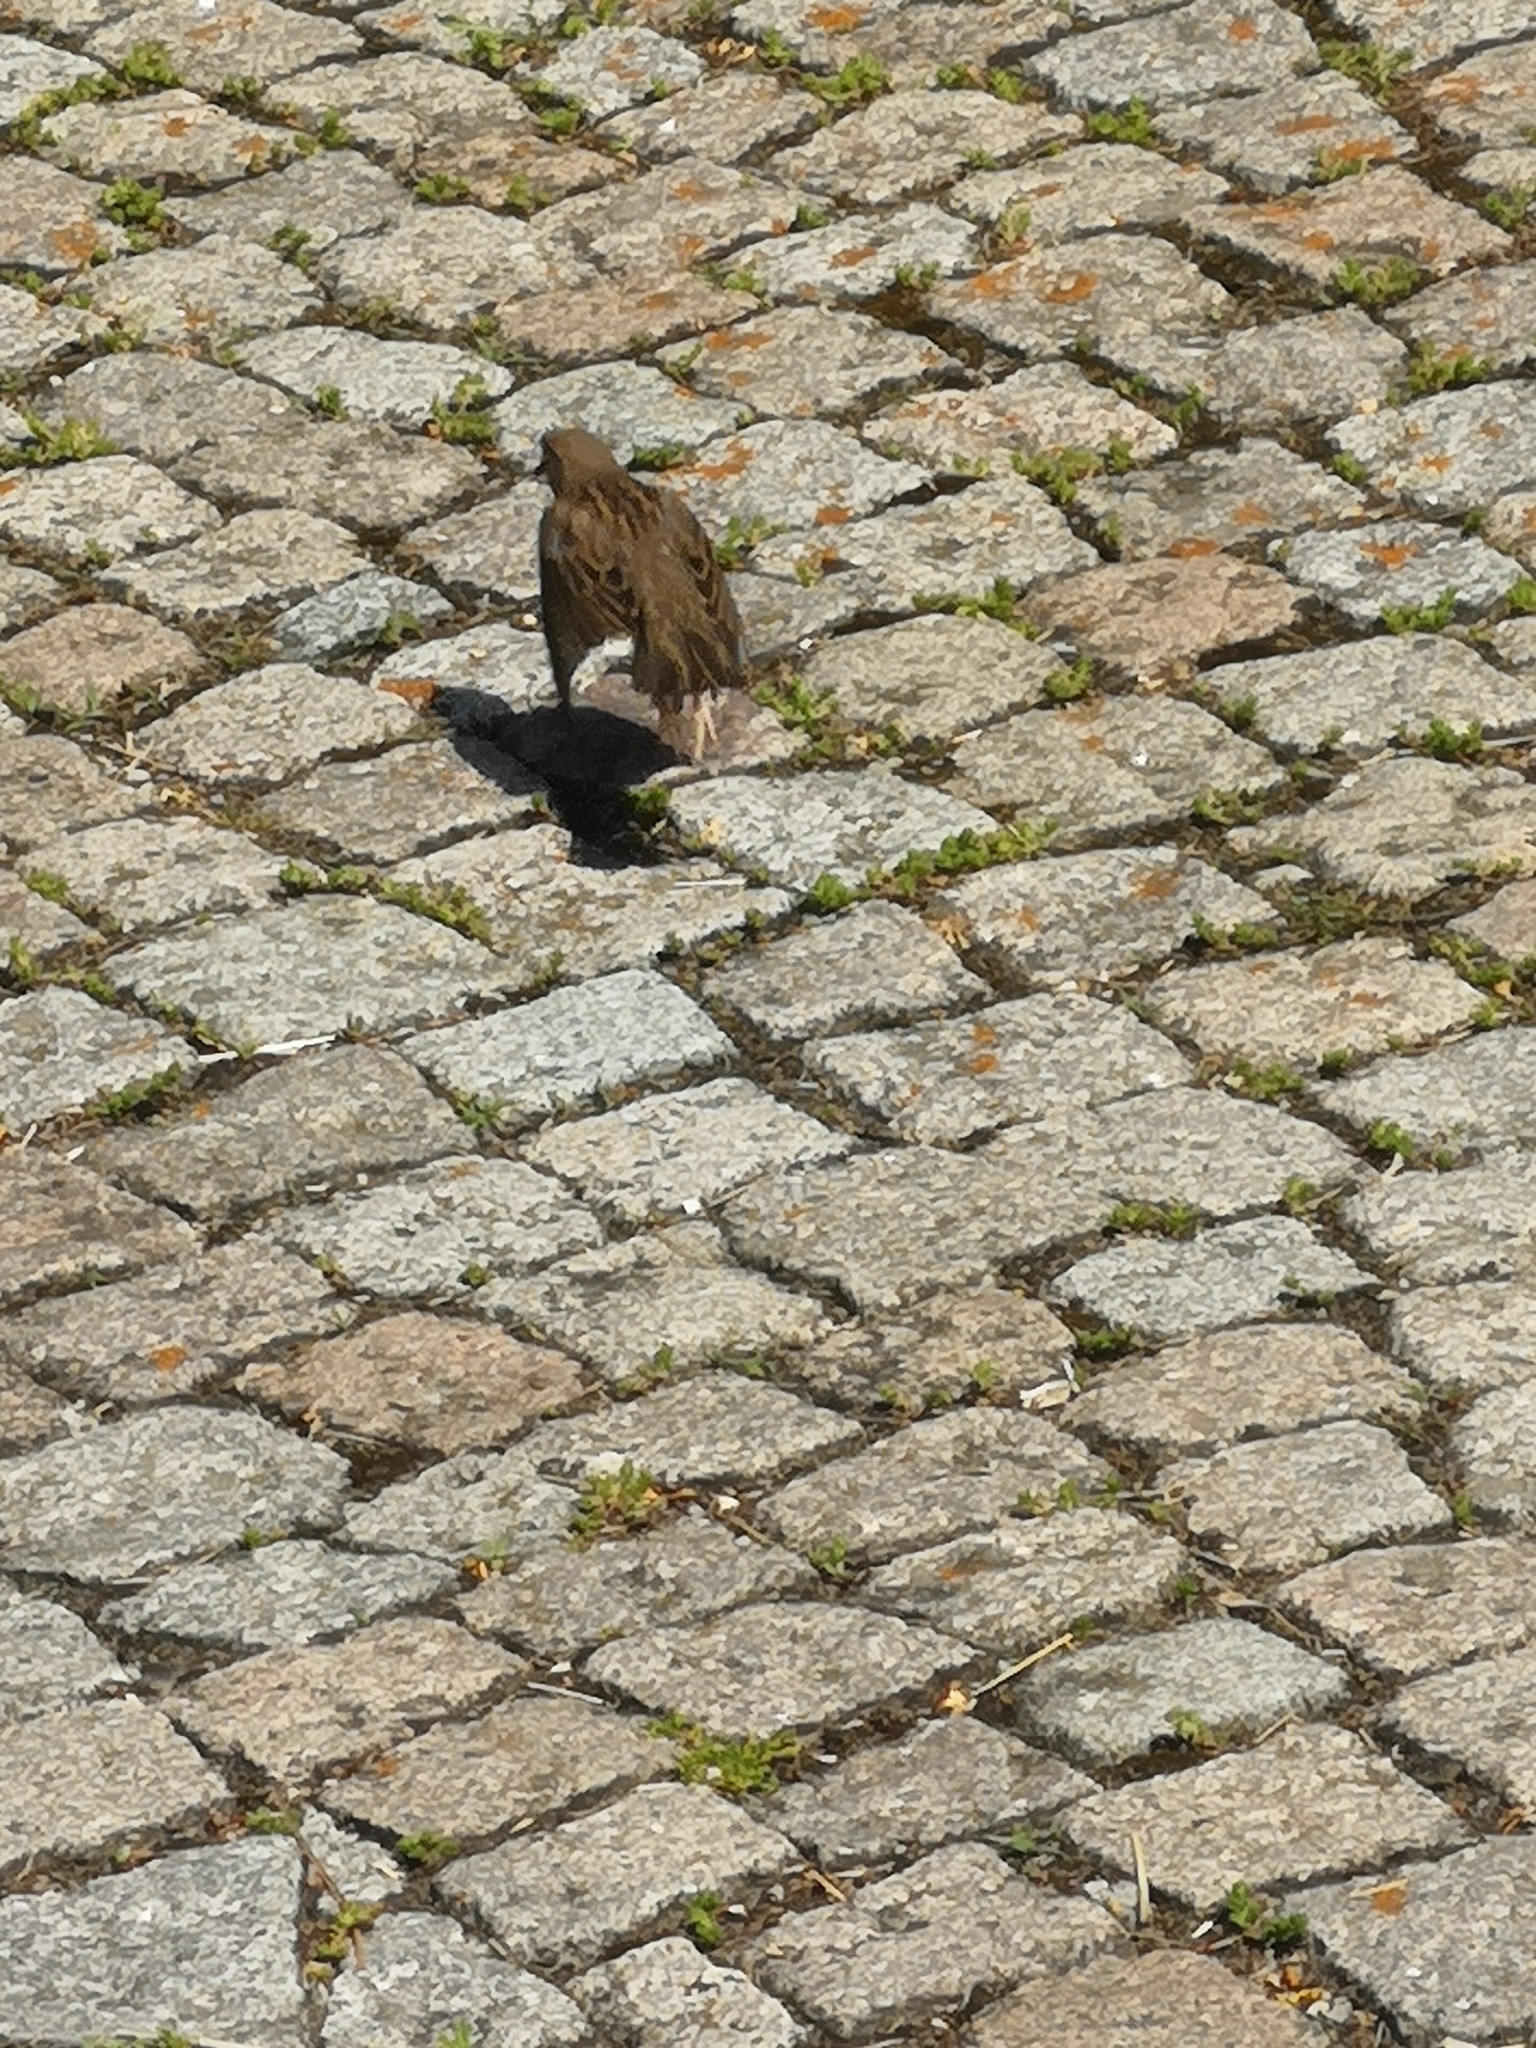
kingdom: Animalia
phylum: Chordata
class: Aves
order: Passeriformes
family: Passeridae
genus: Passer
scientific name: Passer domesticus
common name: House sparrow
